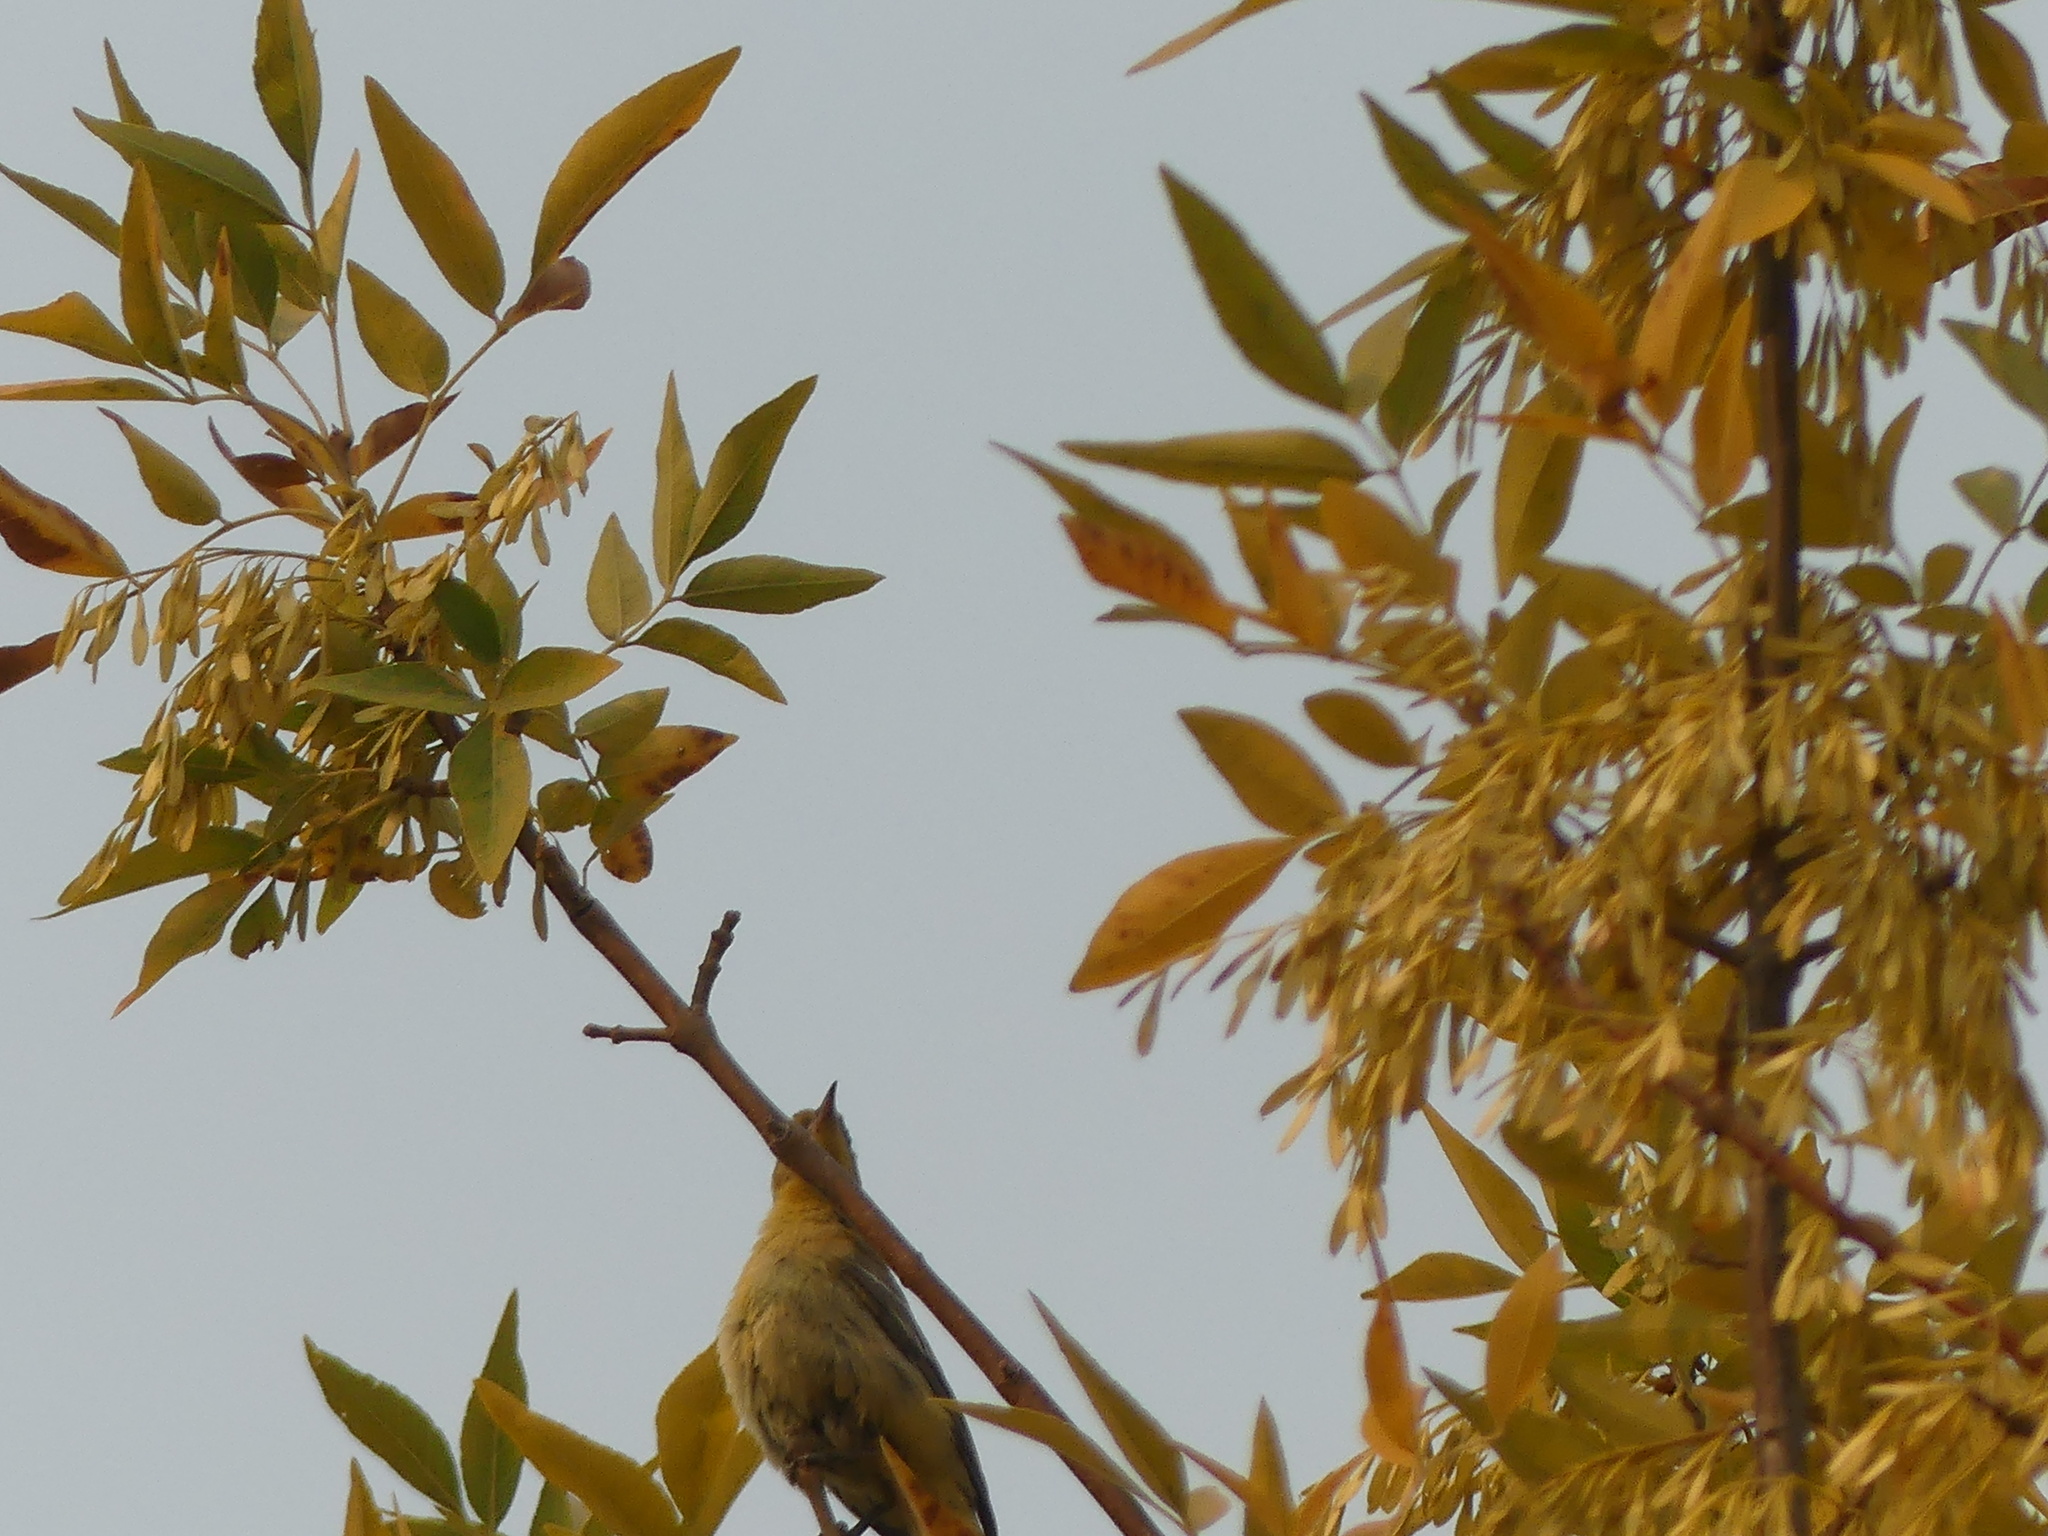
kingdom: Animalia
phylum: Chordata
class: Aves
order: Passeriformes
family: Icteridae
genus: Icterus
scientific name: Icterus bullockii
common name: Bullock's oriole
